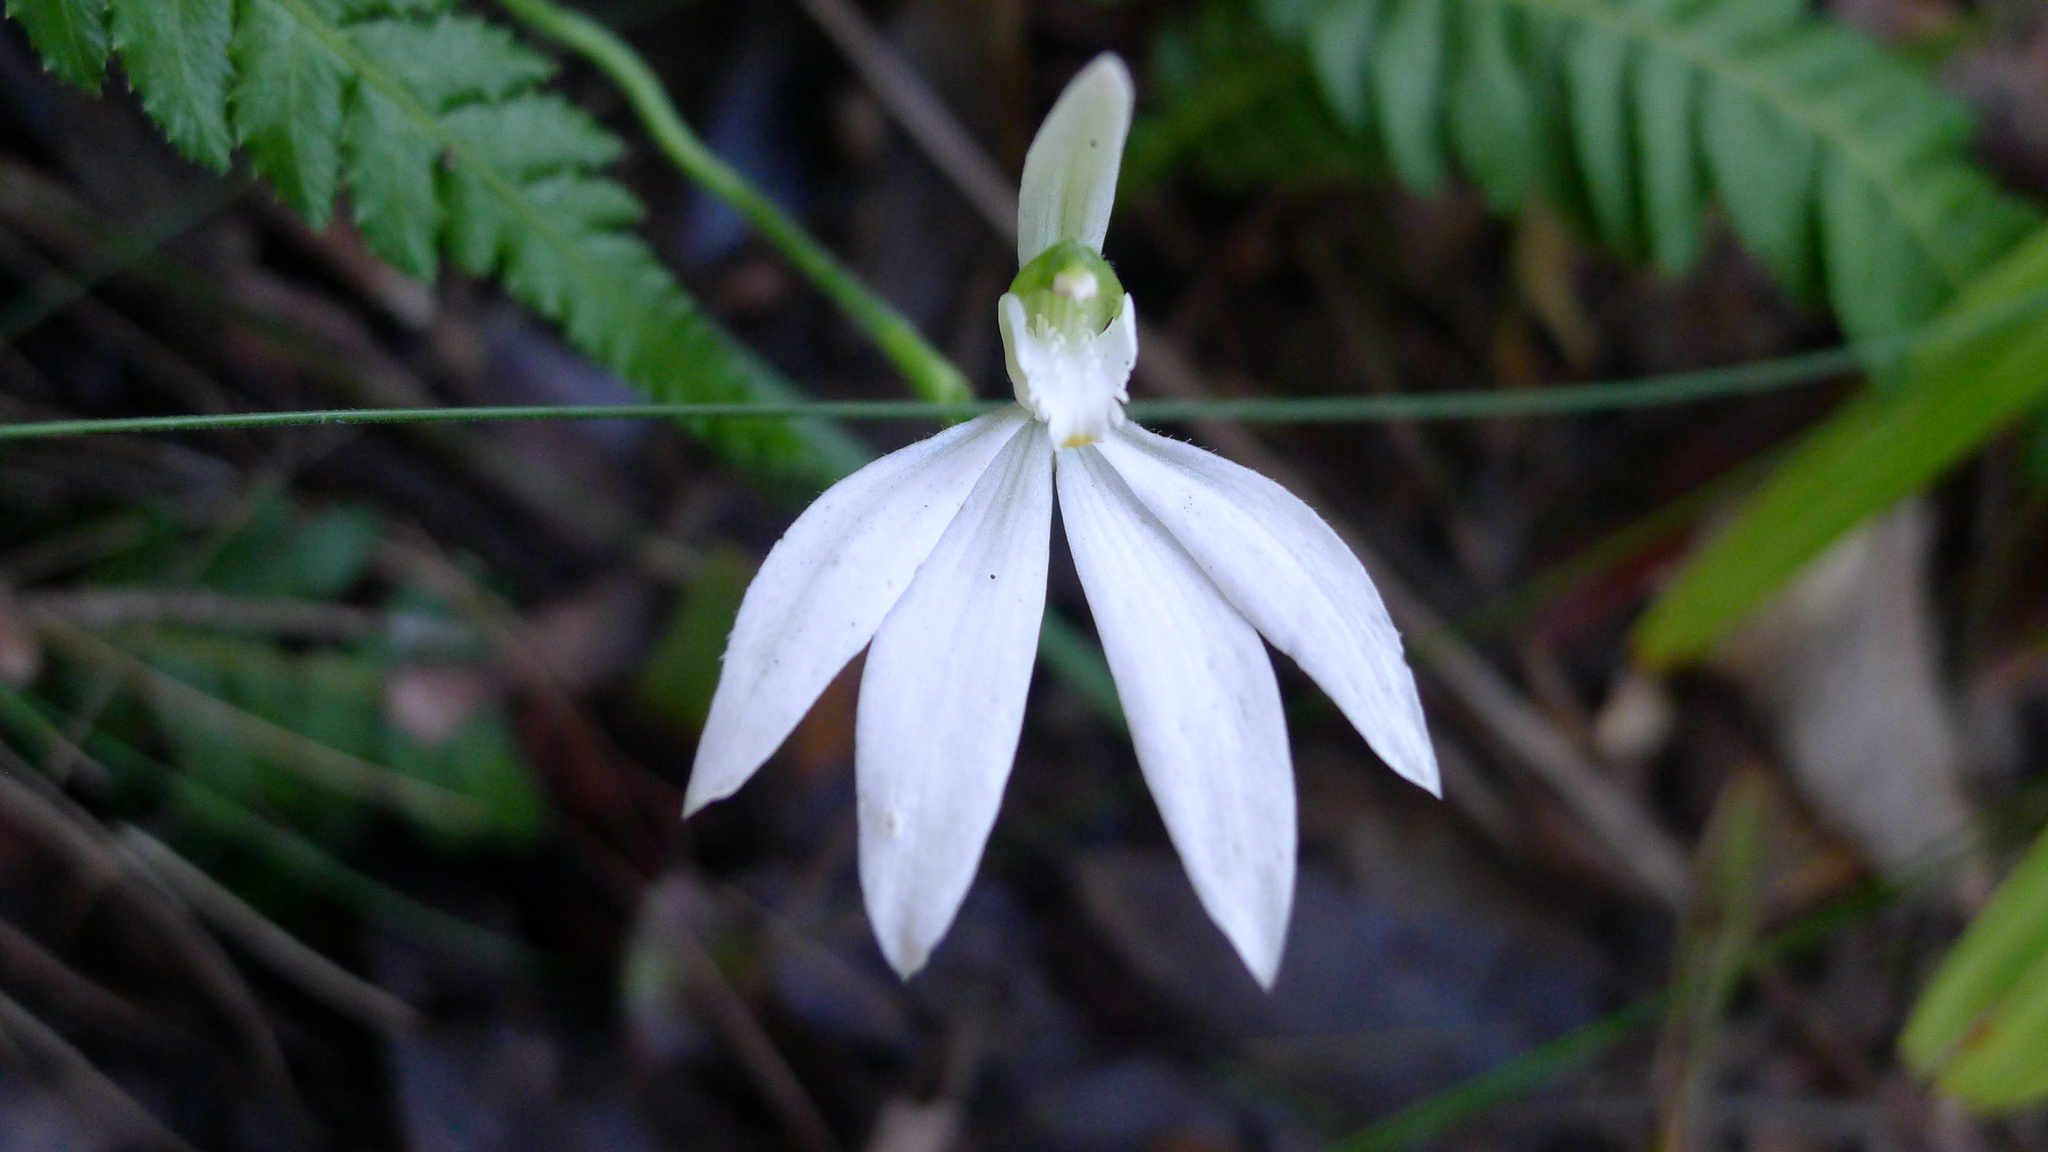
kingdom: Plantae
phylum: Tracheophyta
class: Liliopsida
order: Asparagales
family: Orchidaceae
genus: Caladenia
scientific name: Caladenia catenata
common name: White caladenia
